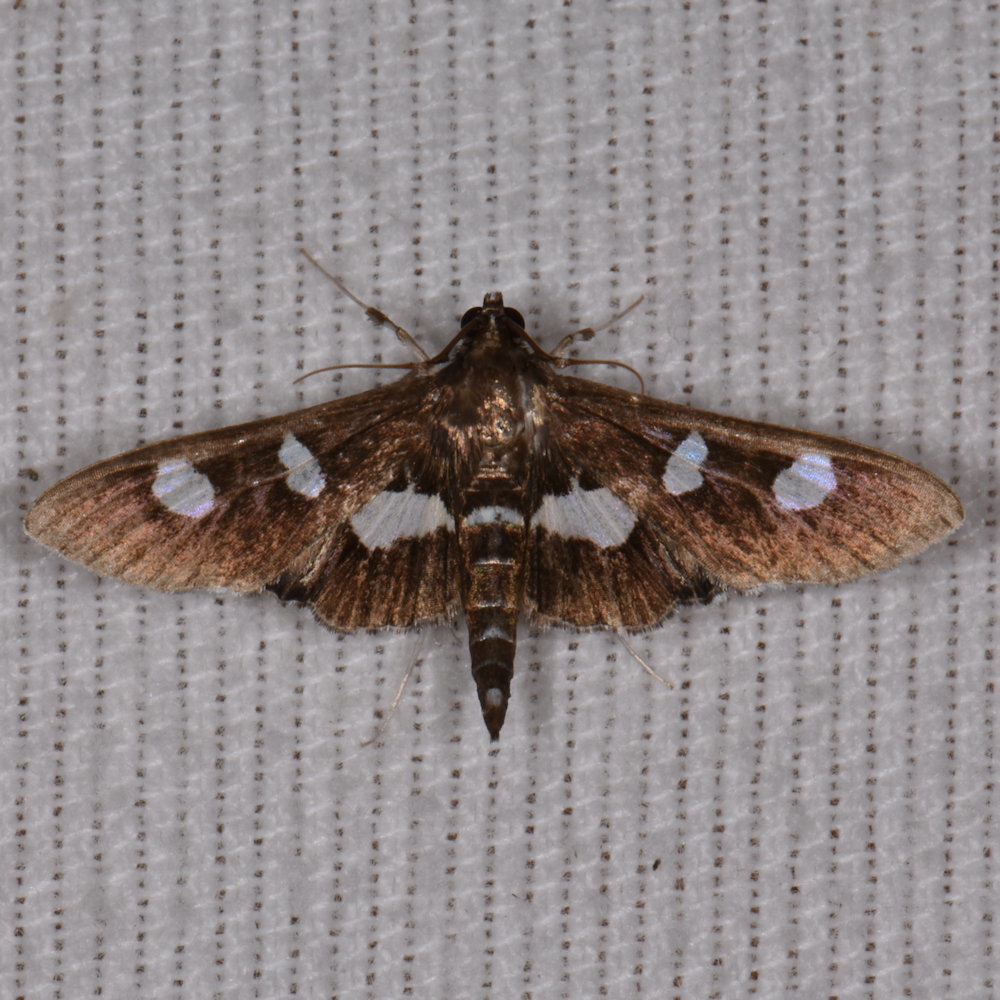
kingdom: Animalia
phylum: Arthropoda
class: Insecta
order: Lepidoptera
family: Crambidae
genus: Desmia
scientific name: Desmia
